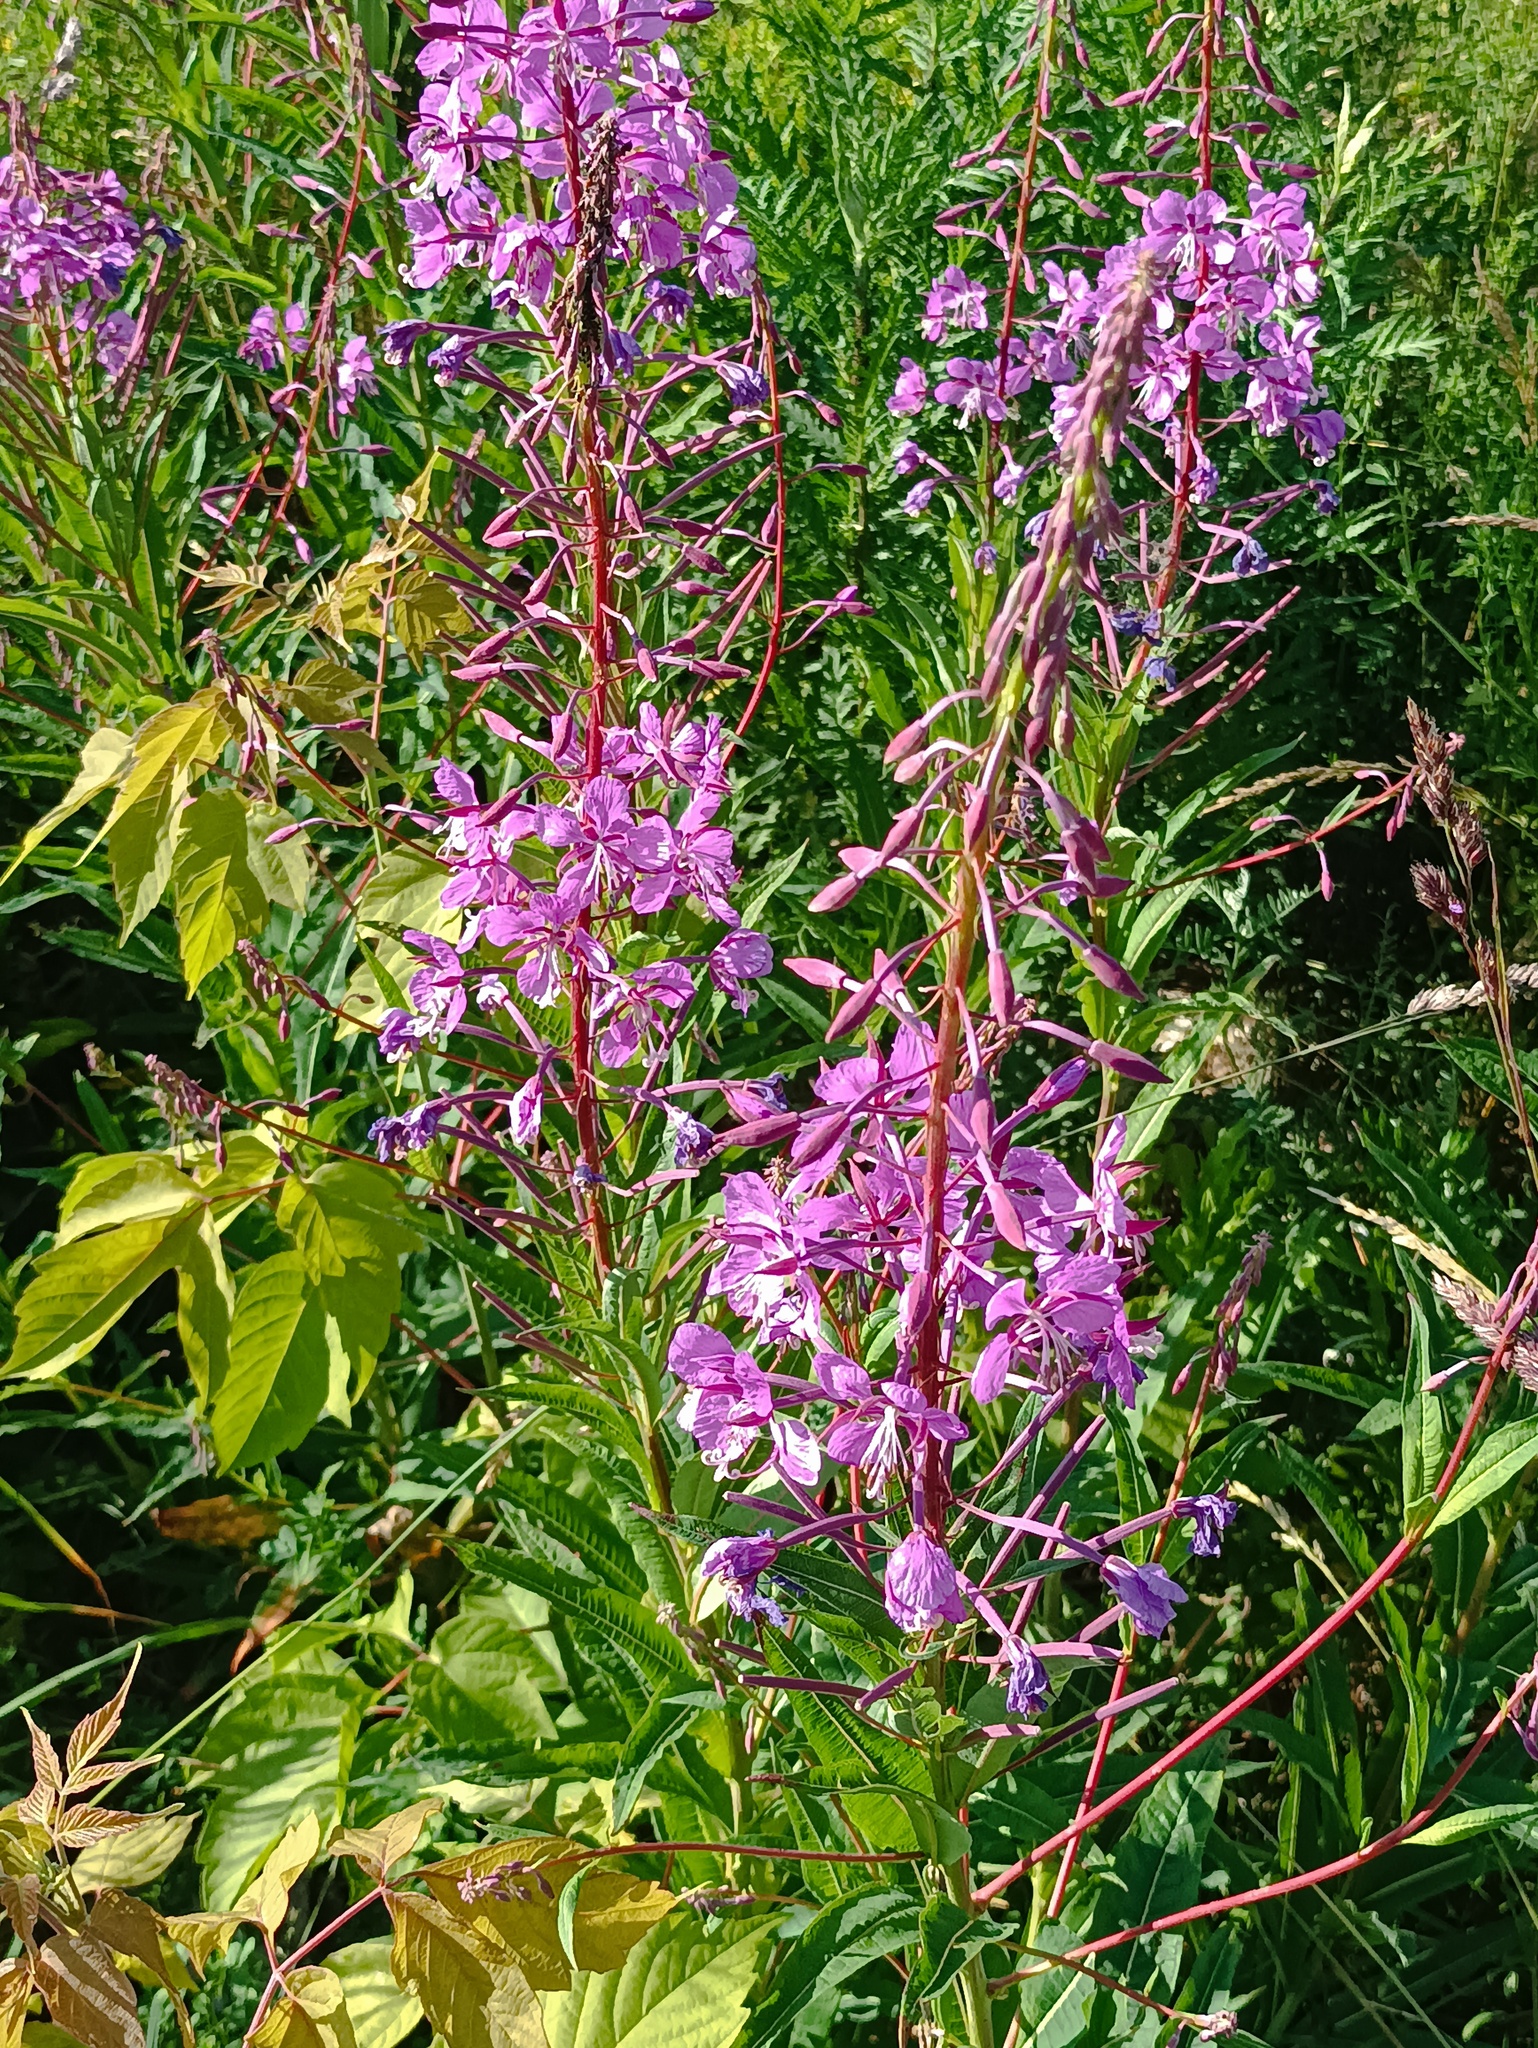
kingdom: Plantae
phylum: Tracheophyta
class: Magnoliopsida
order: Myrtales
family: Onagraceae
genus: Chamaenerion
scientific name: Chamaenerion angustifolium
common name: Fireweed
